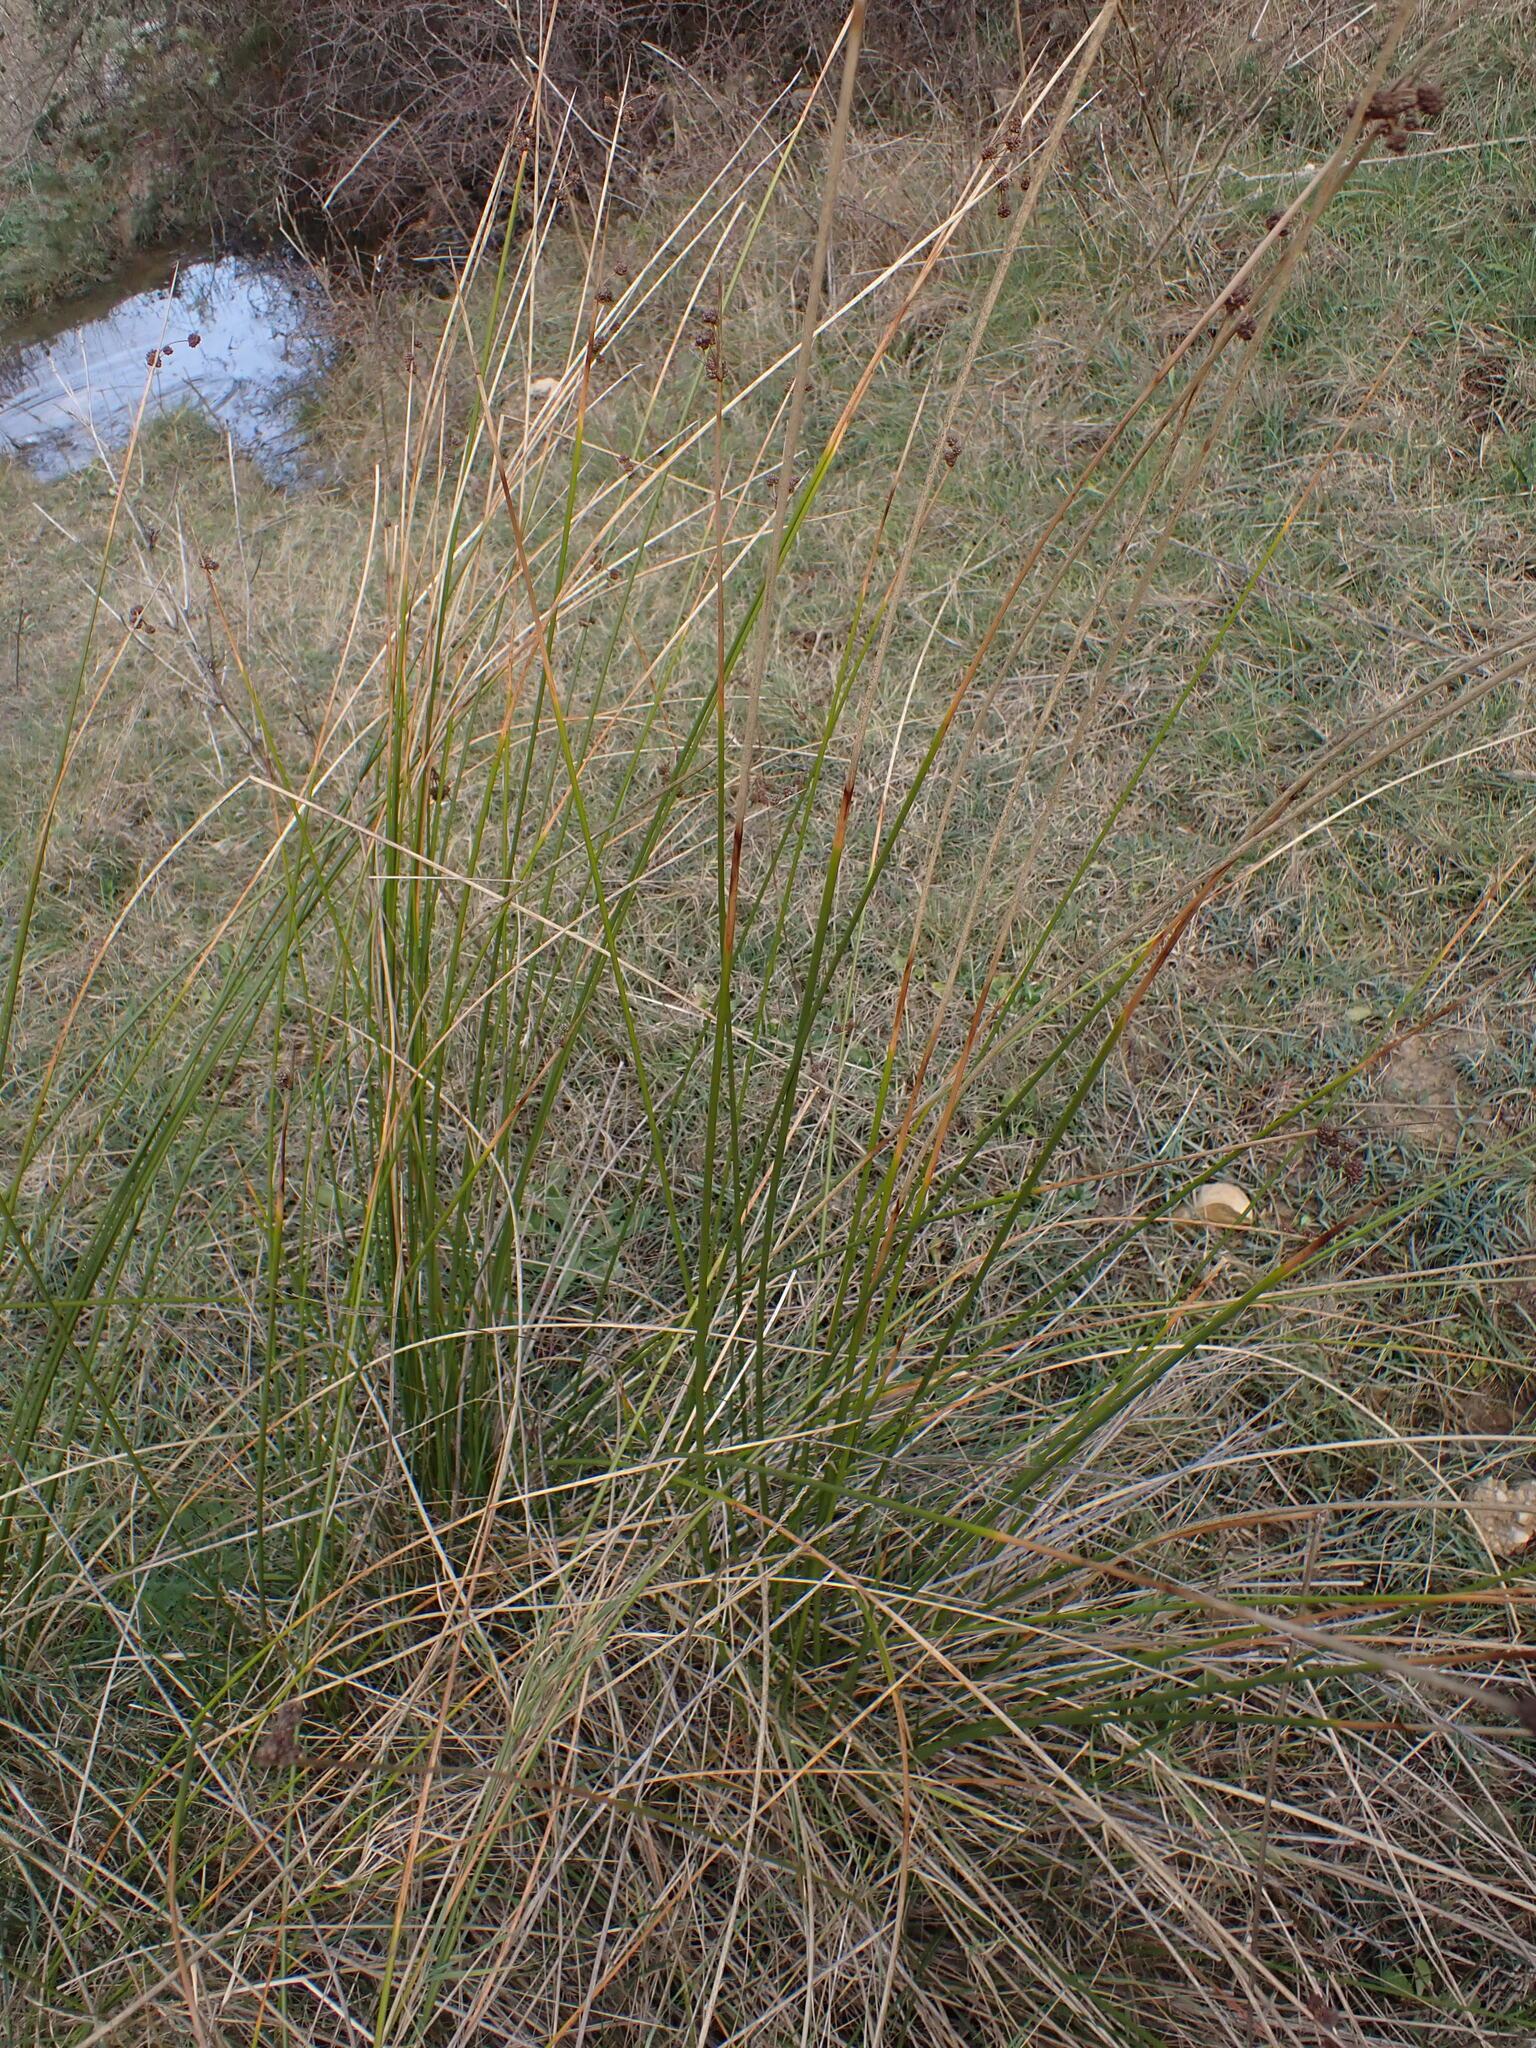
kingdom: Plantae
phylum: Tracheophyta
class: Liliopsida
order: Poales
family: Cyperaceae
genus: Scirpoides
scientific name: Scirpoides holoschoenus
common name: Round-headed club-rush
